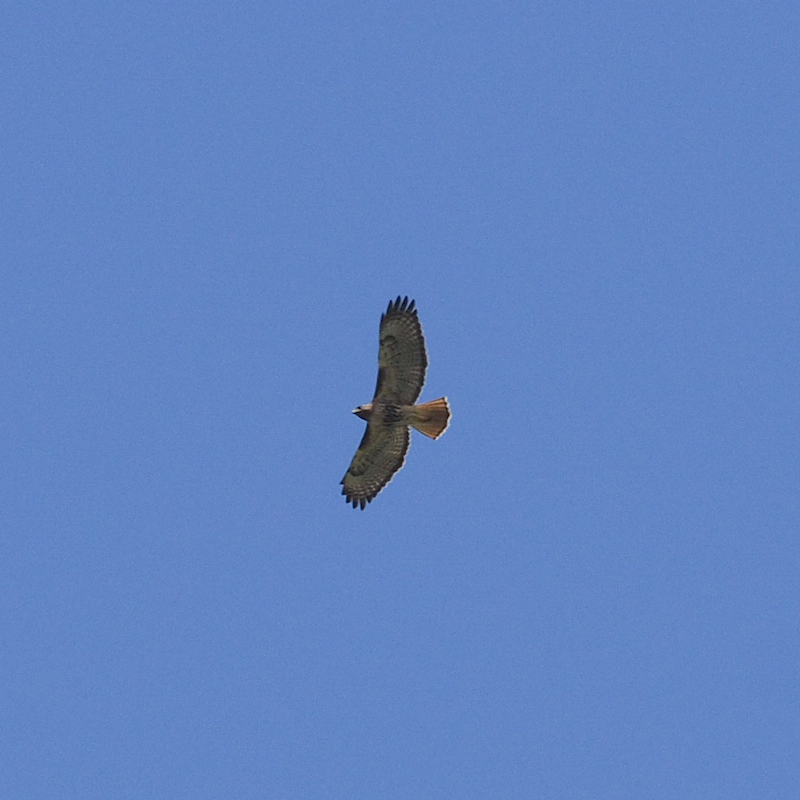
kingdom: Animalia
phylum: Chordata
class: Aves
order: Accipitriformes
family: Accipitridae
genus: Buteo
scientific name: Buteo jamaicensis
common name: Red-tailed hawk
